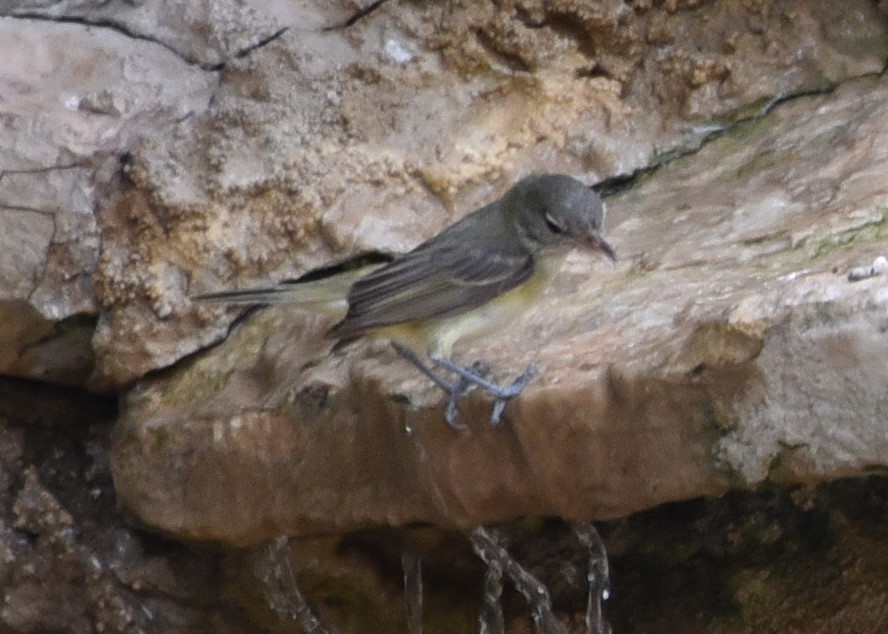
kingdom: Animalia
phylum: Chordata
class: Aves
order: Passeriformes
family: Vireonidae
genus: Vireo
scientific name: Vireo bellii
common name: Bell's vireo
